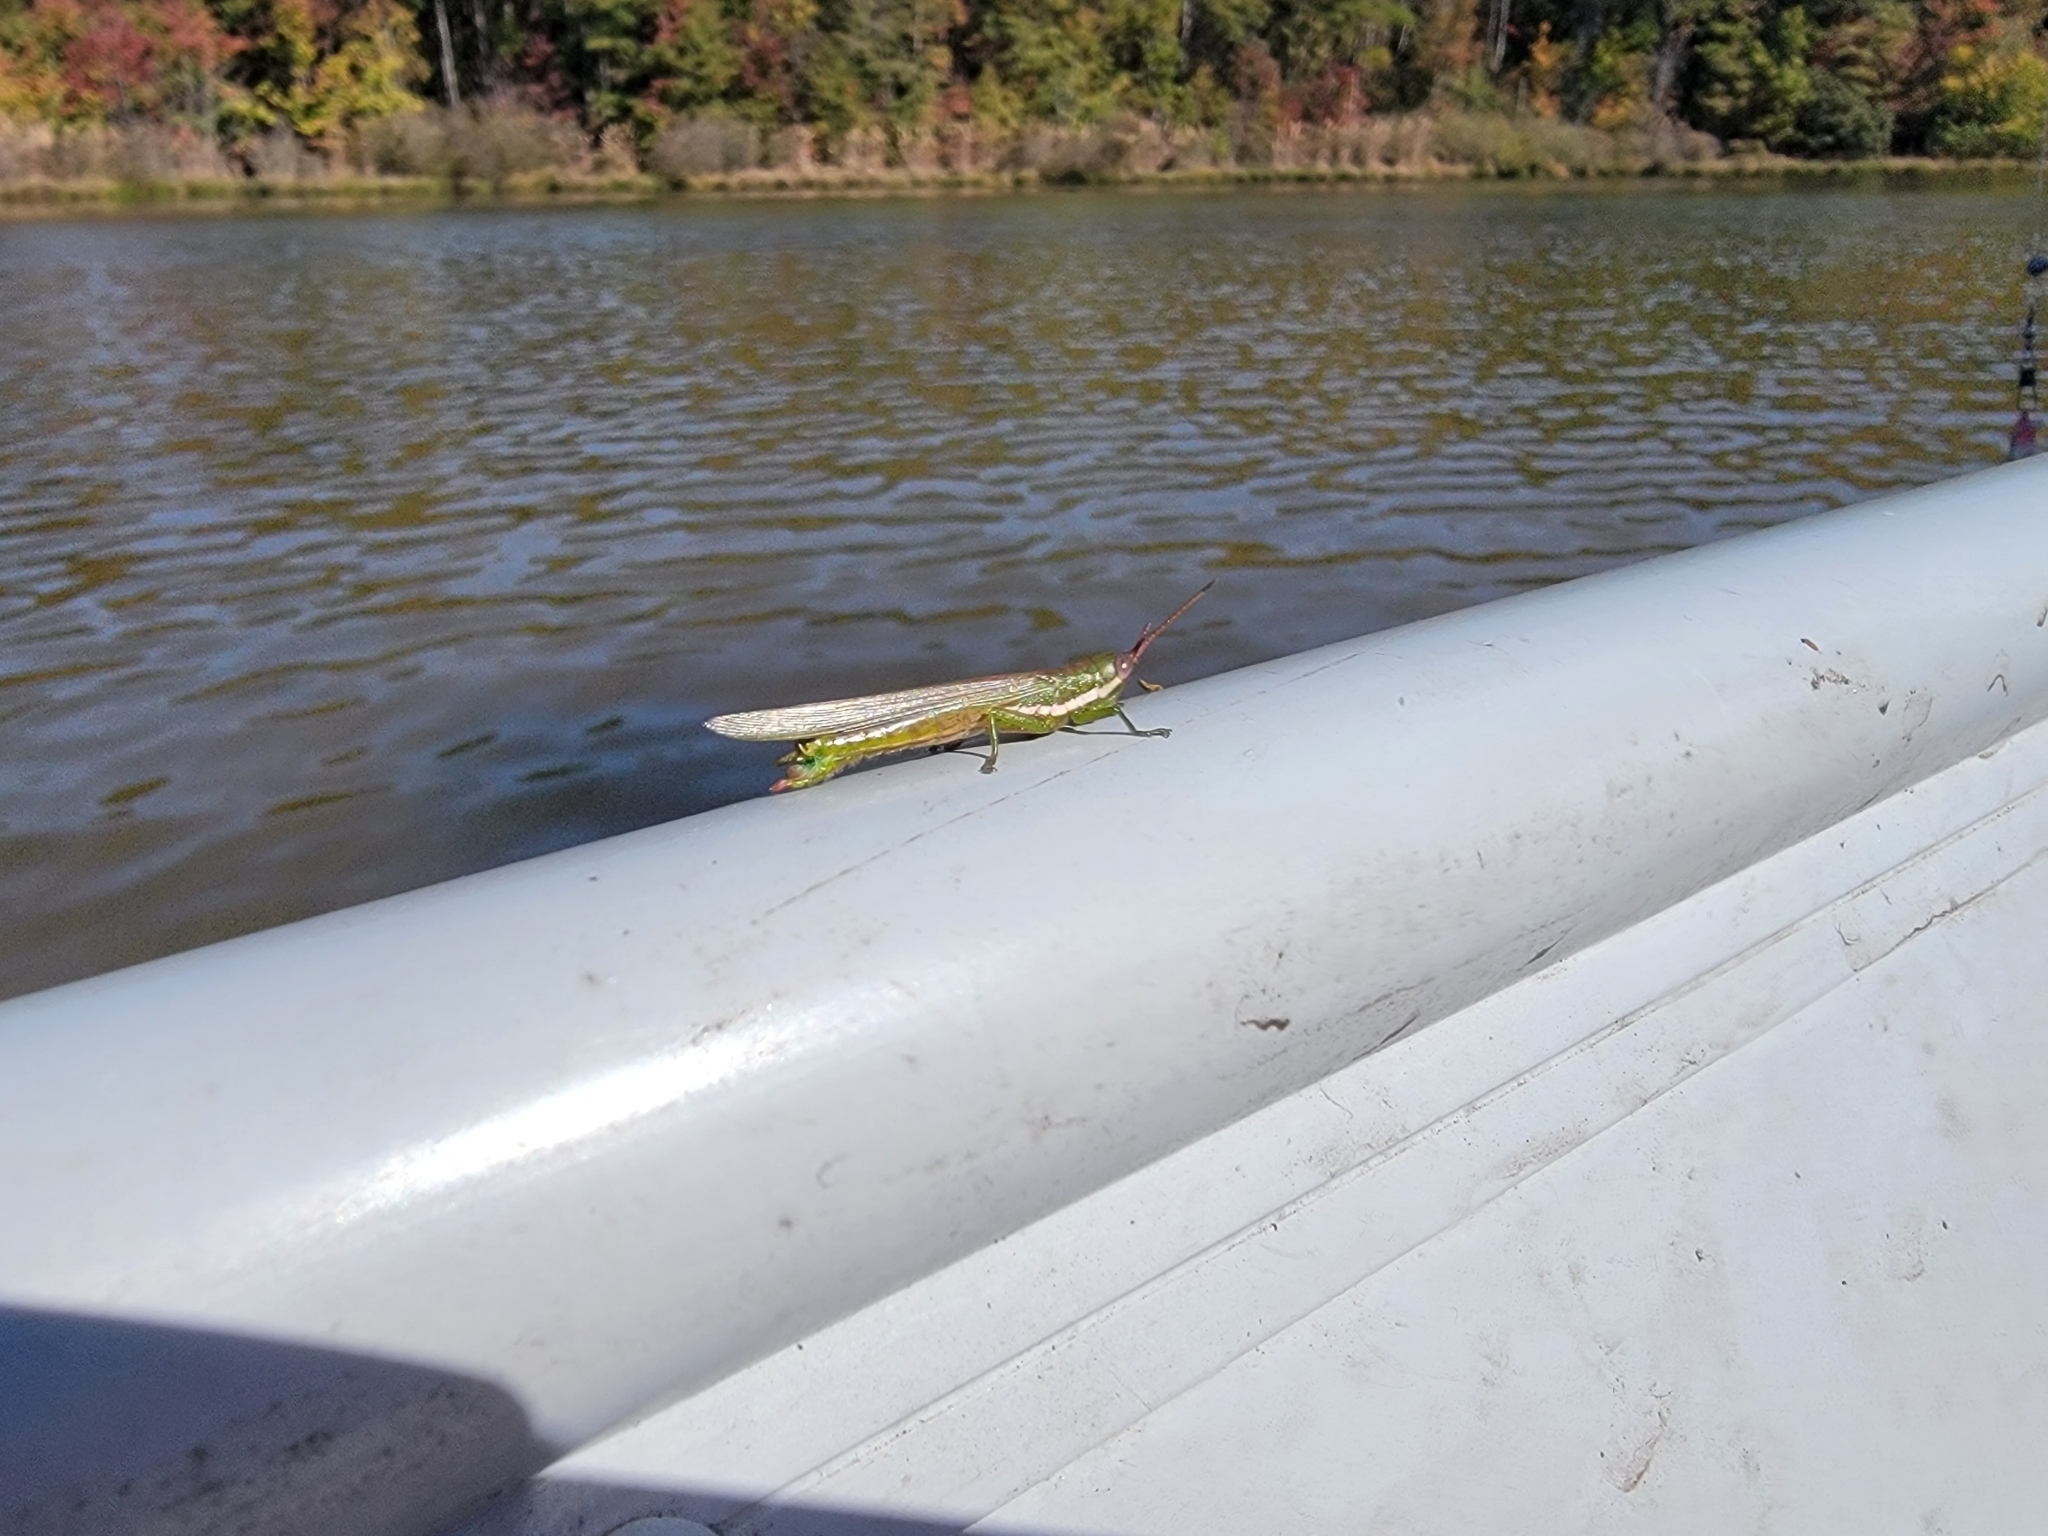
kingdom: Animalia
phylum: Arthropoda
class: Insecta
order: Orthoptera
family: Acrididae
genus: Stenacris
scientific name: Stenacris vitreipennis
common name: Glassy-winged toothpick grasshopper
